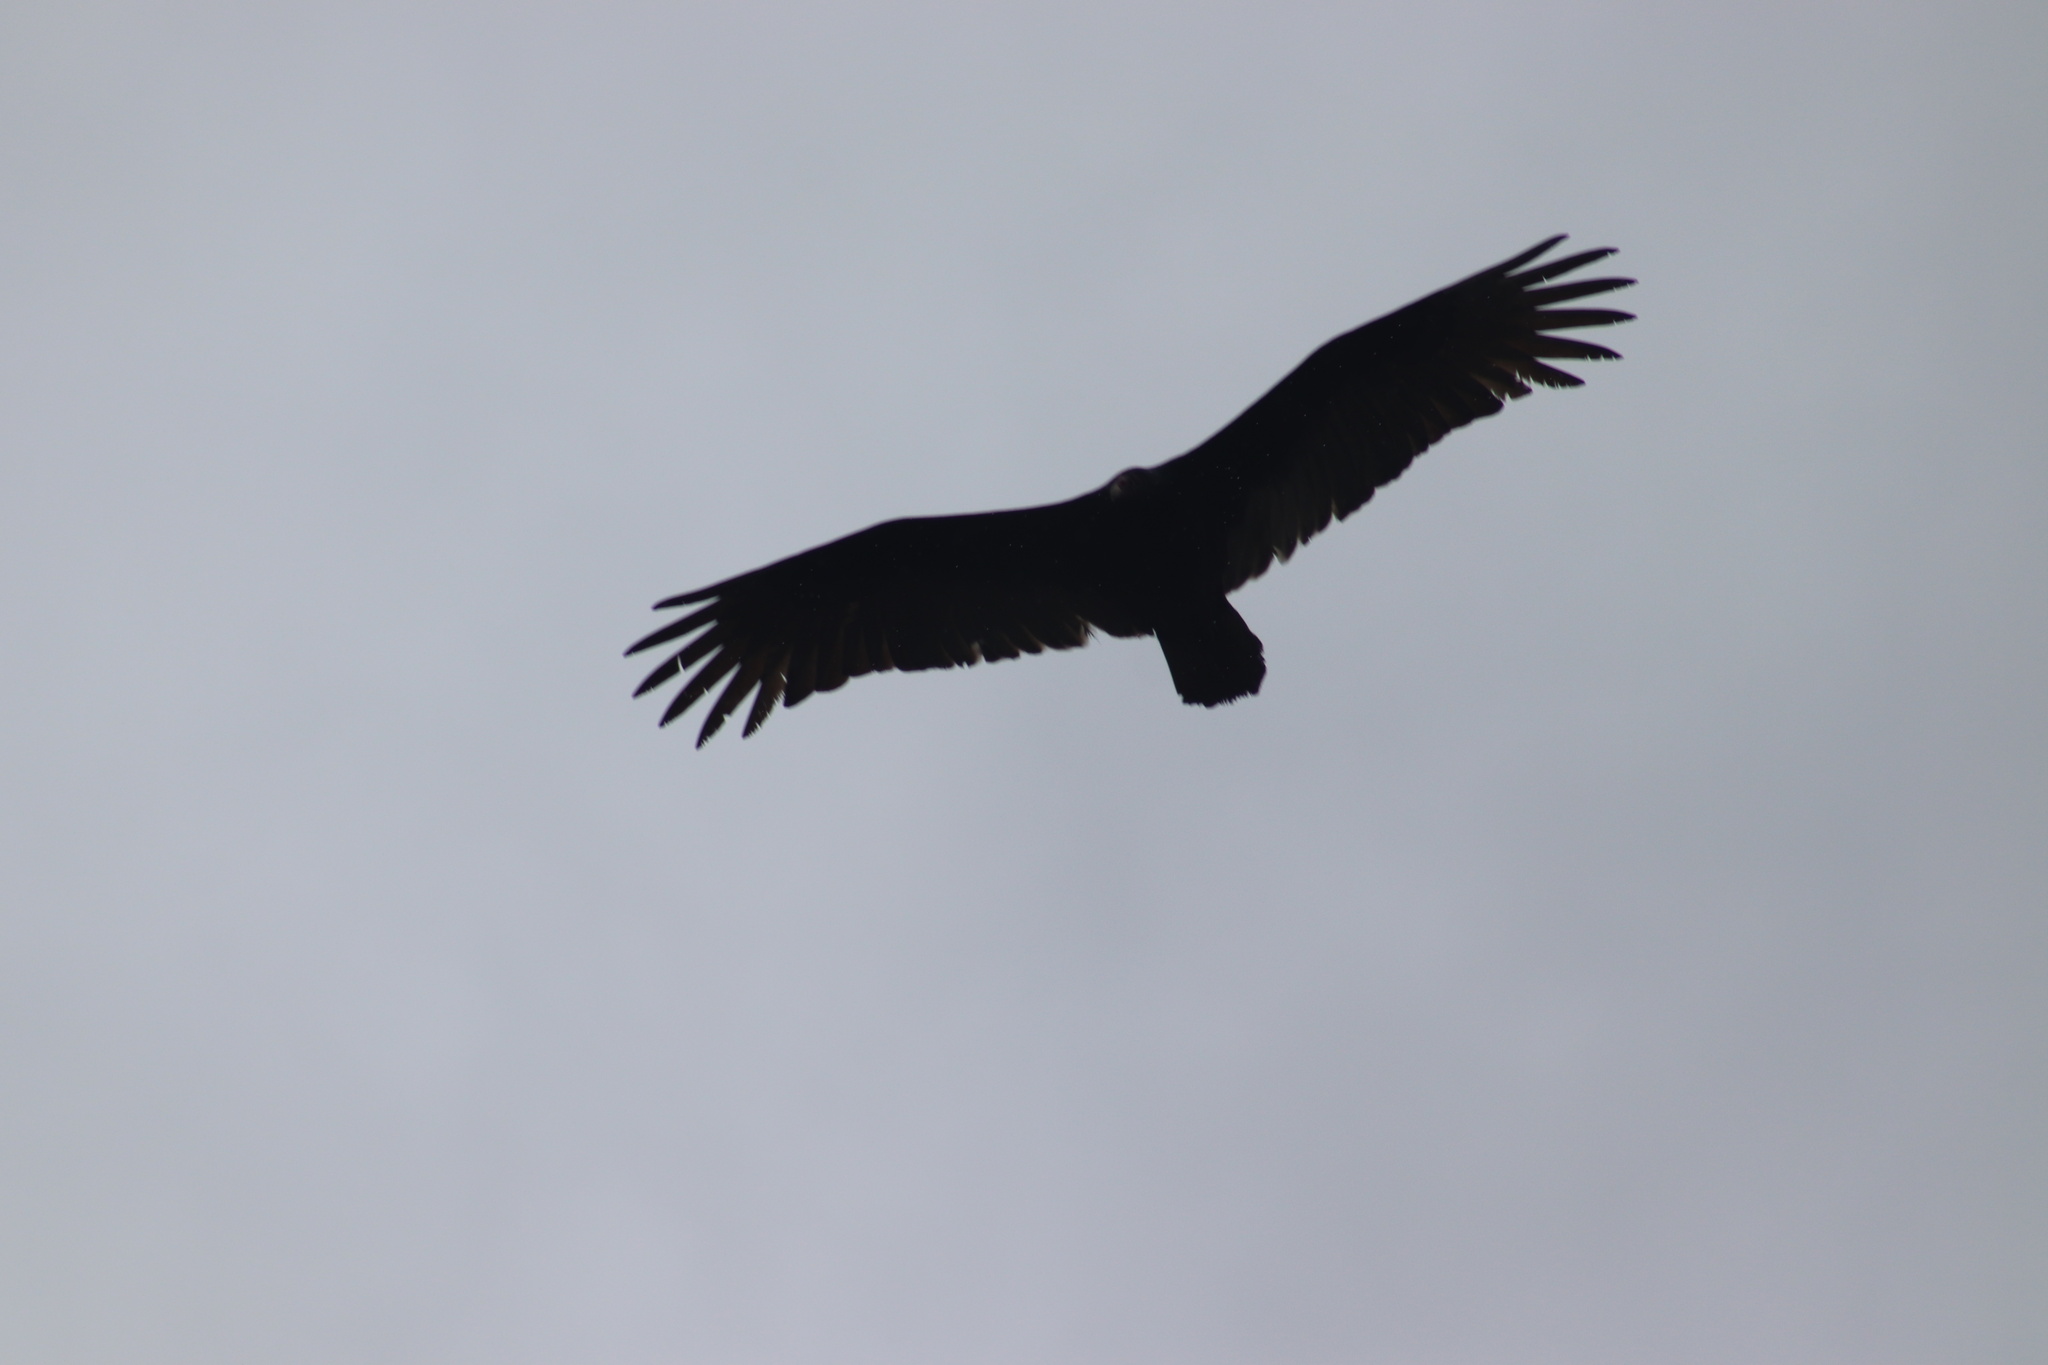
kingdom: Animalia
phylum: Chordata
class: Aves
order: Accipitriformes
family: Cathartidae
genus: Cathartes
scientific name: Cathartes aura
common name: Turkey vulture
